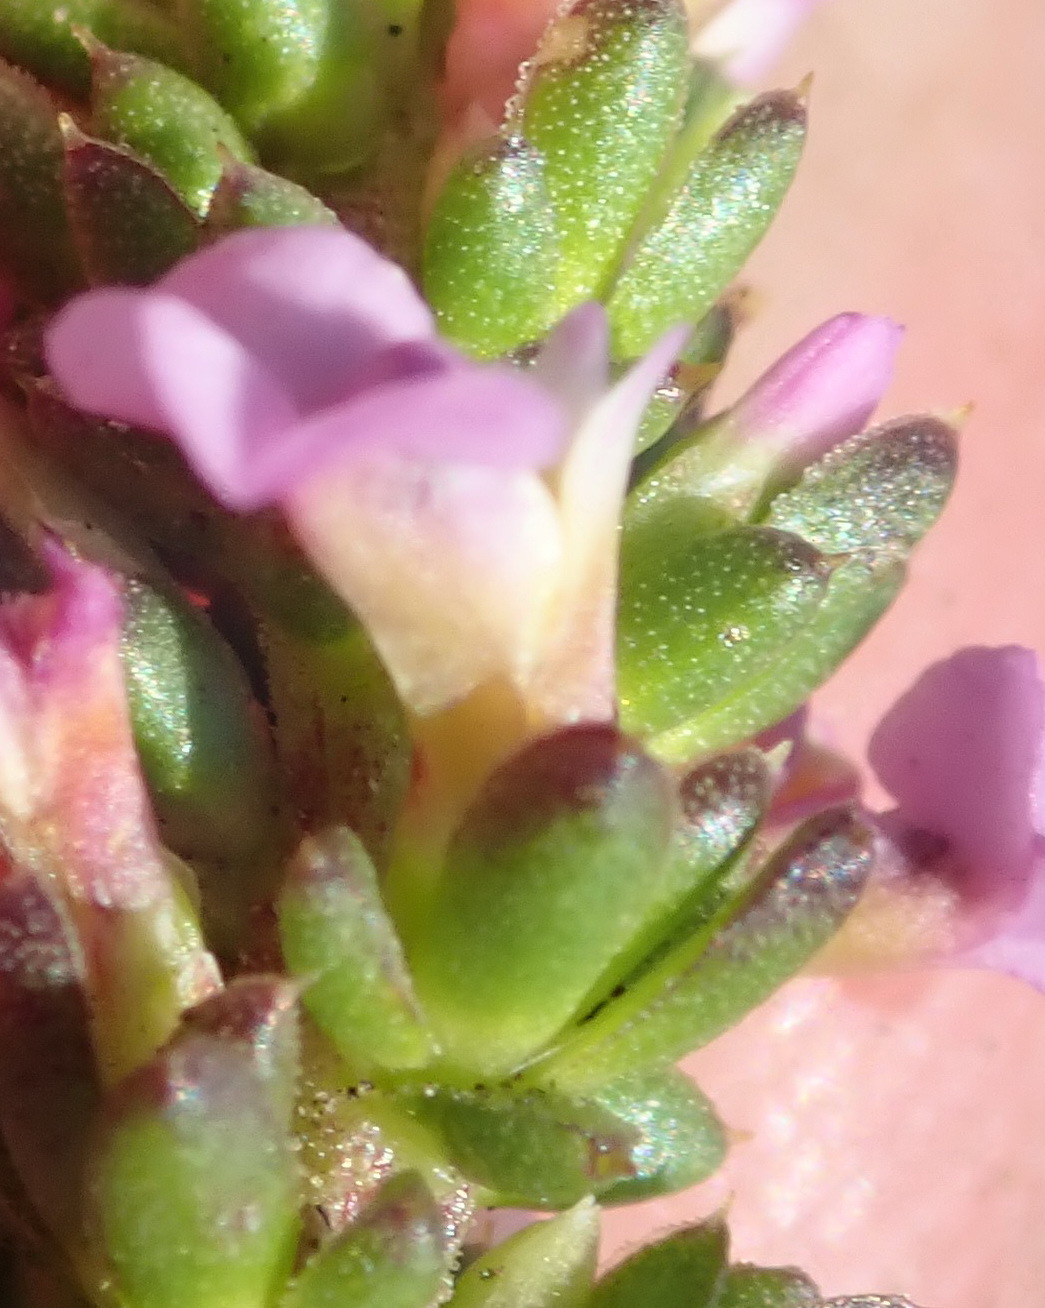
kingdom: Plantae
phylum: Tracheophyta
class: Magnoliopsida
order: Fabales
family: Polygalaceae
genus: Muraltia
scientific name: Muraltia depressa
